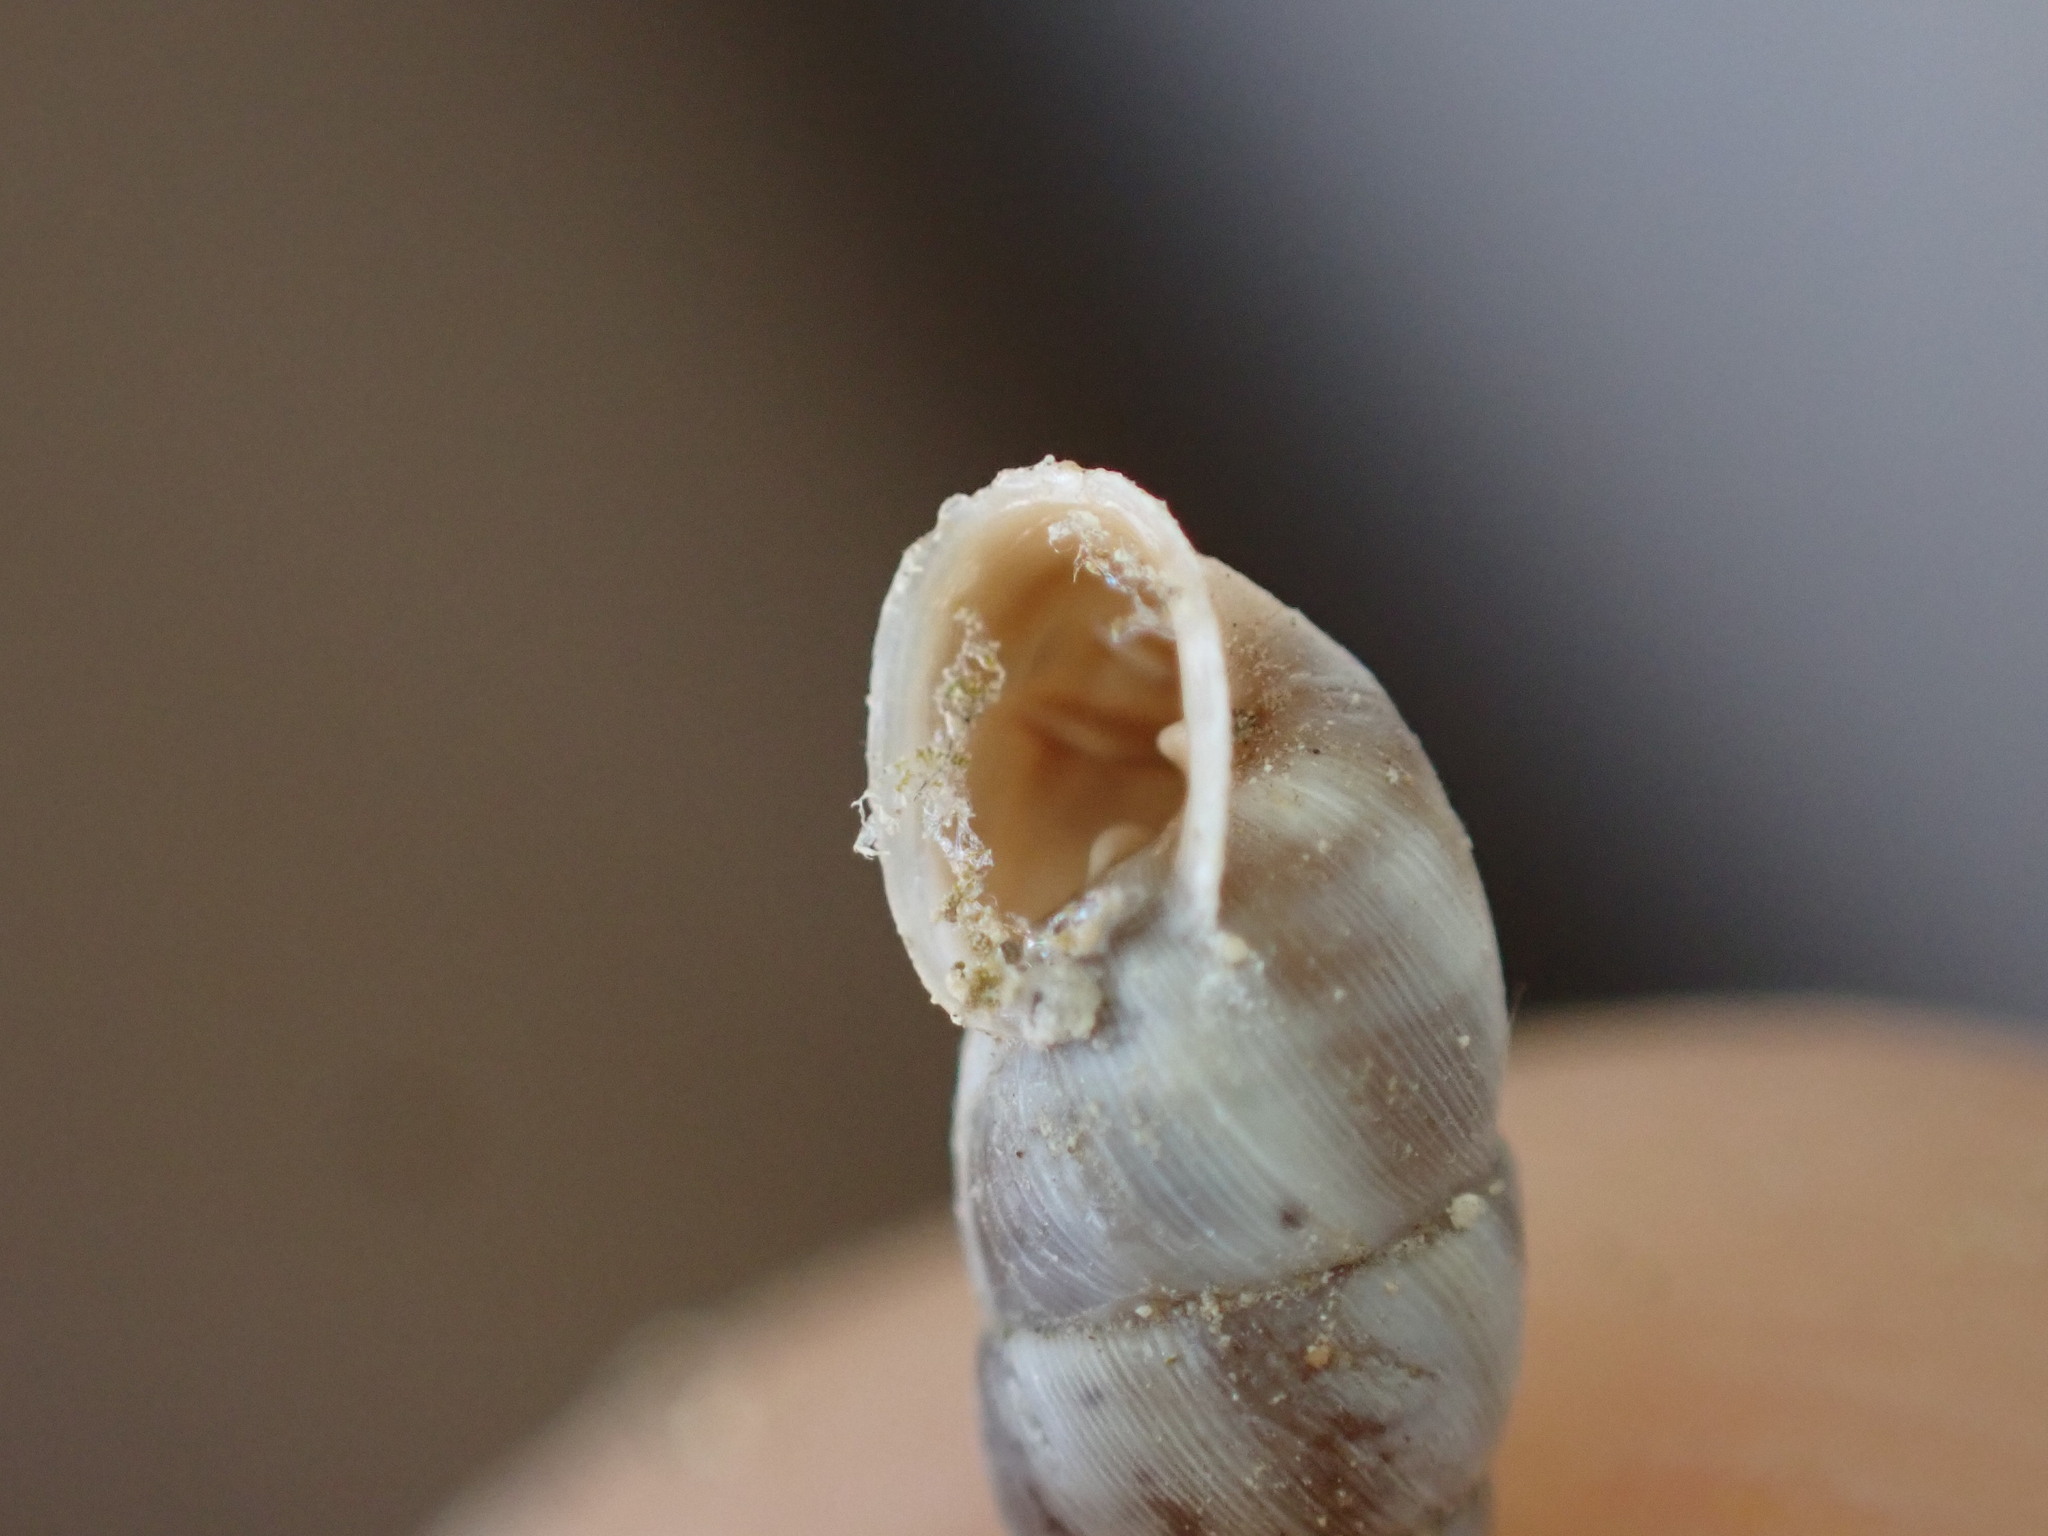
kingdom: Animalia
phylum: Mollusca
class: Gastropoda
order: Stylommatophora
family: Chondrinidae
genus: Solatopupa
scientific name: Solatopupa similis
